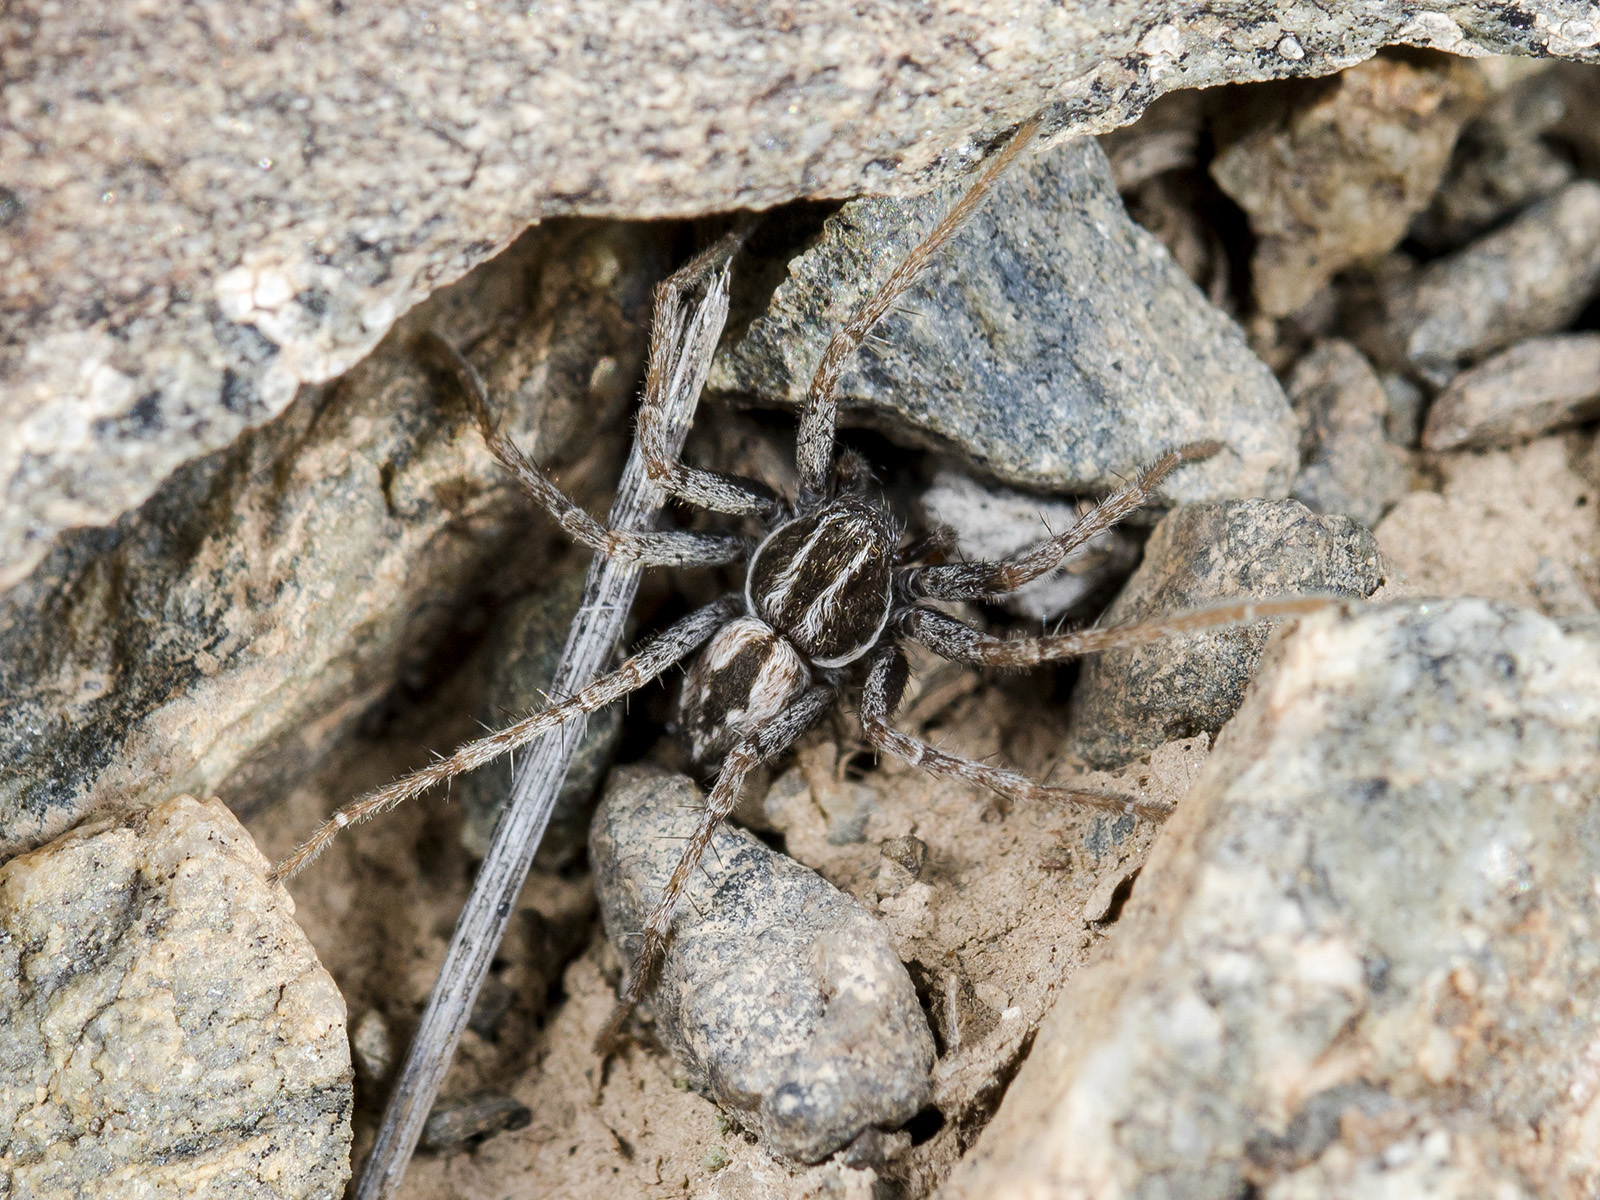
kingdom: Animalia
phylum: Arthropoda
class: Arachnida
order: Araneae
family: Philodromidae
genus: Thanatus
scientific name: Thanatus mikhailovi
